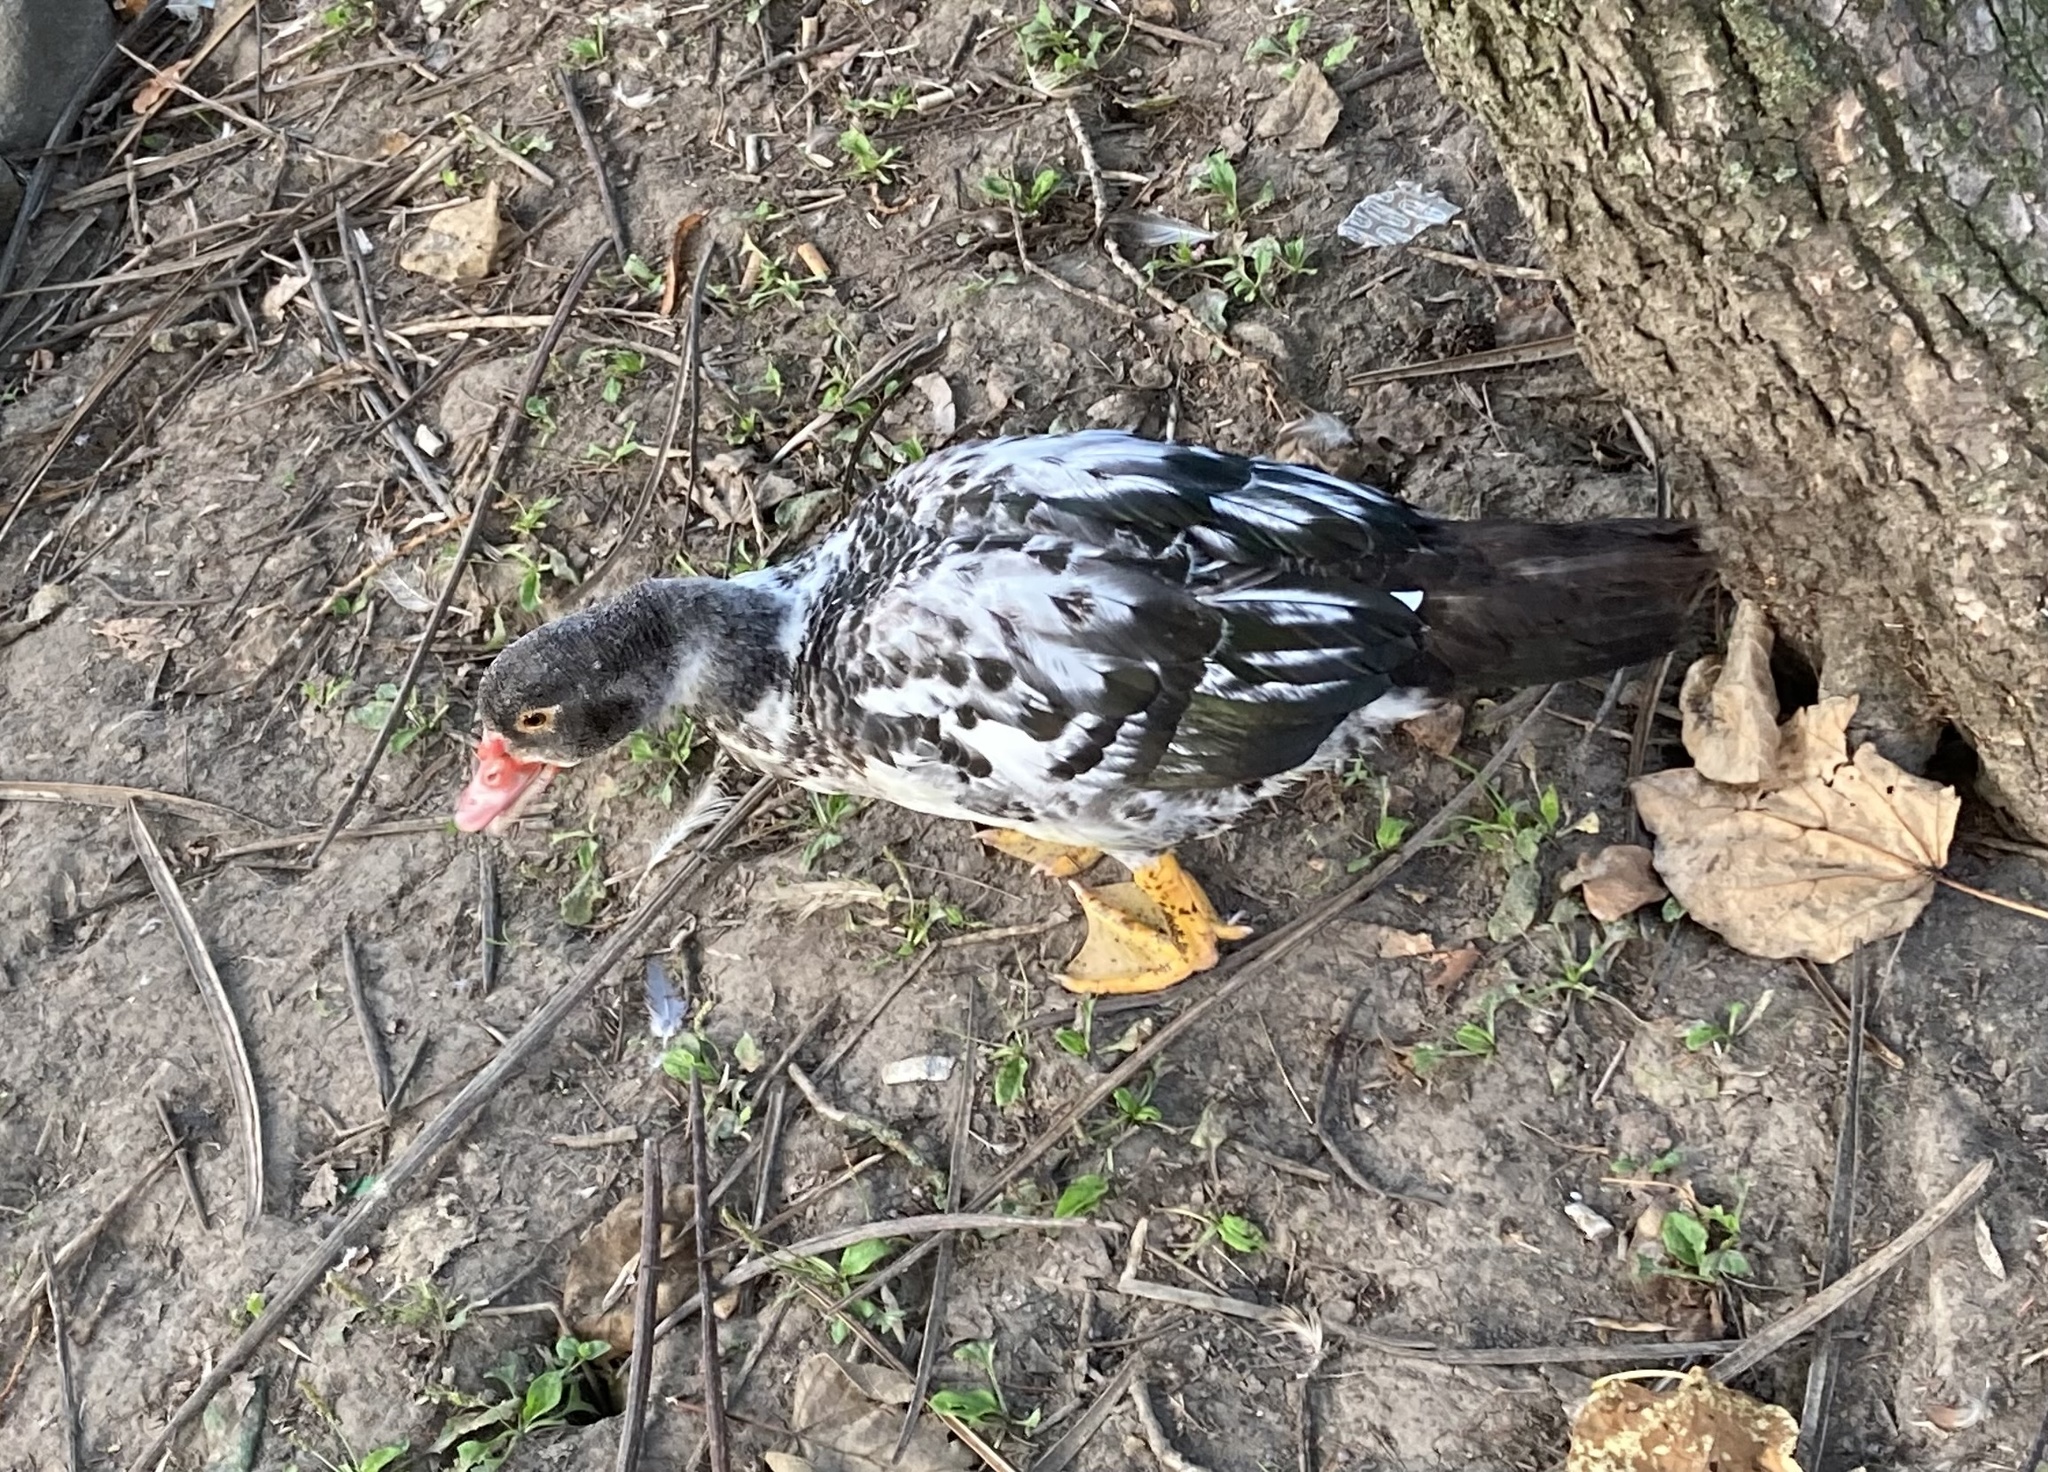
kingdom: Animalia
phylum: Chordata
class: Aves
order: Anseriformes
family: Anatidae
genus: Cairina
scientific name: Cairina moschata
